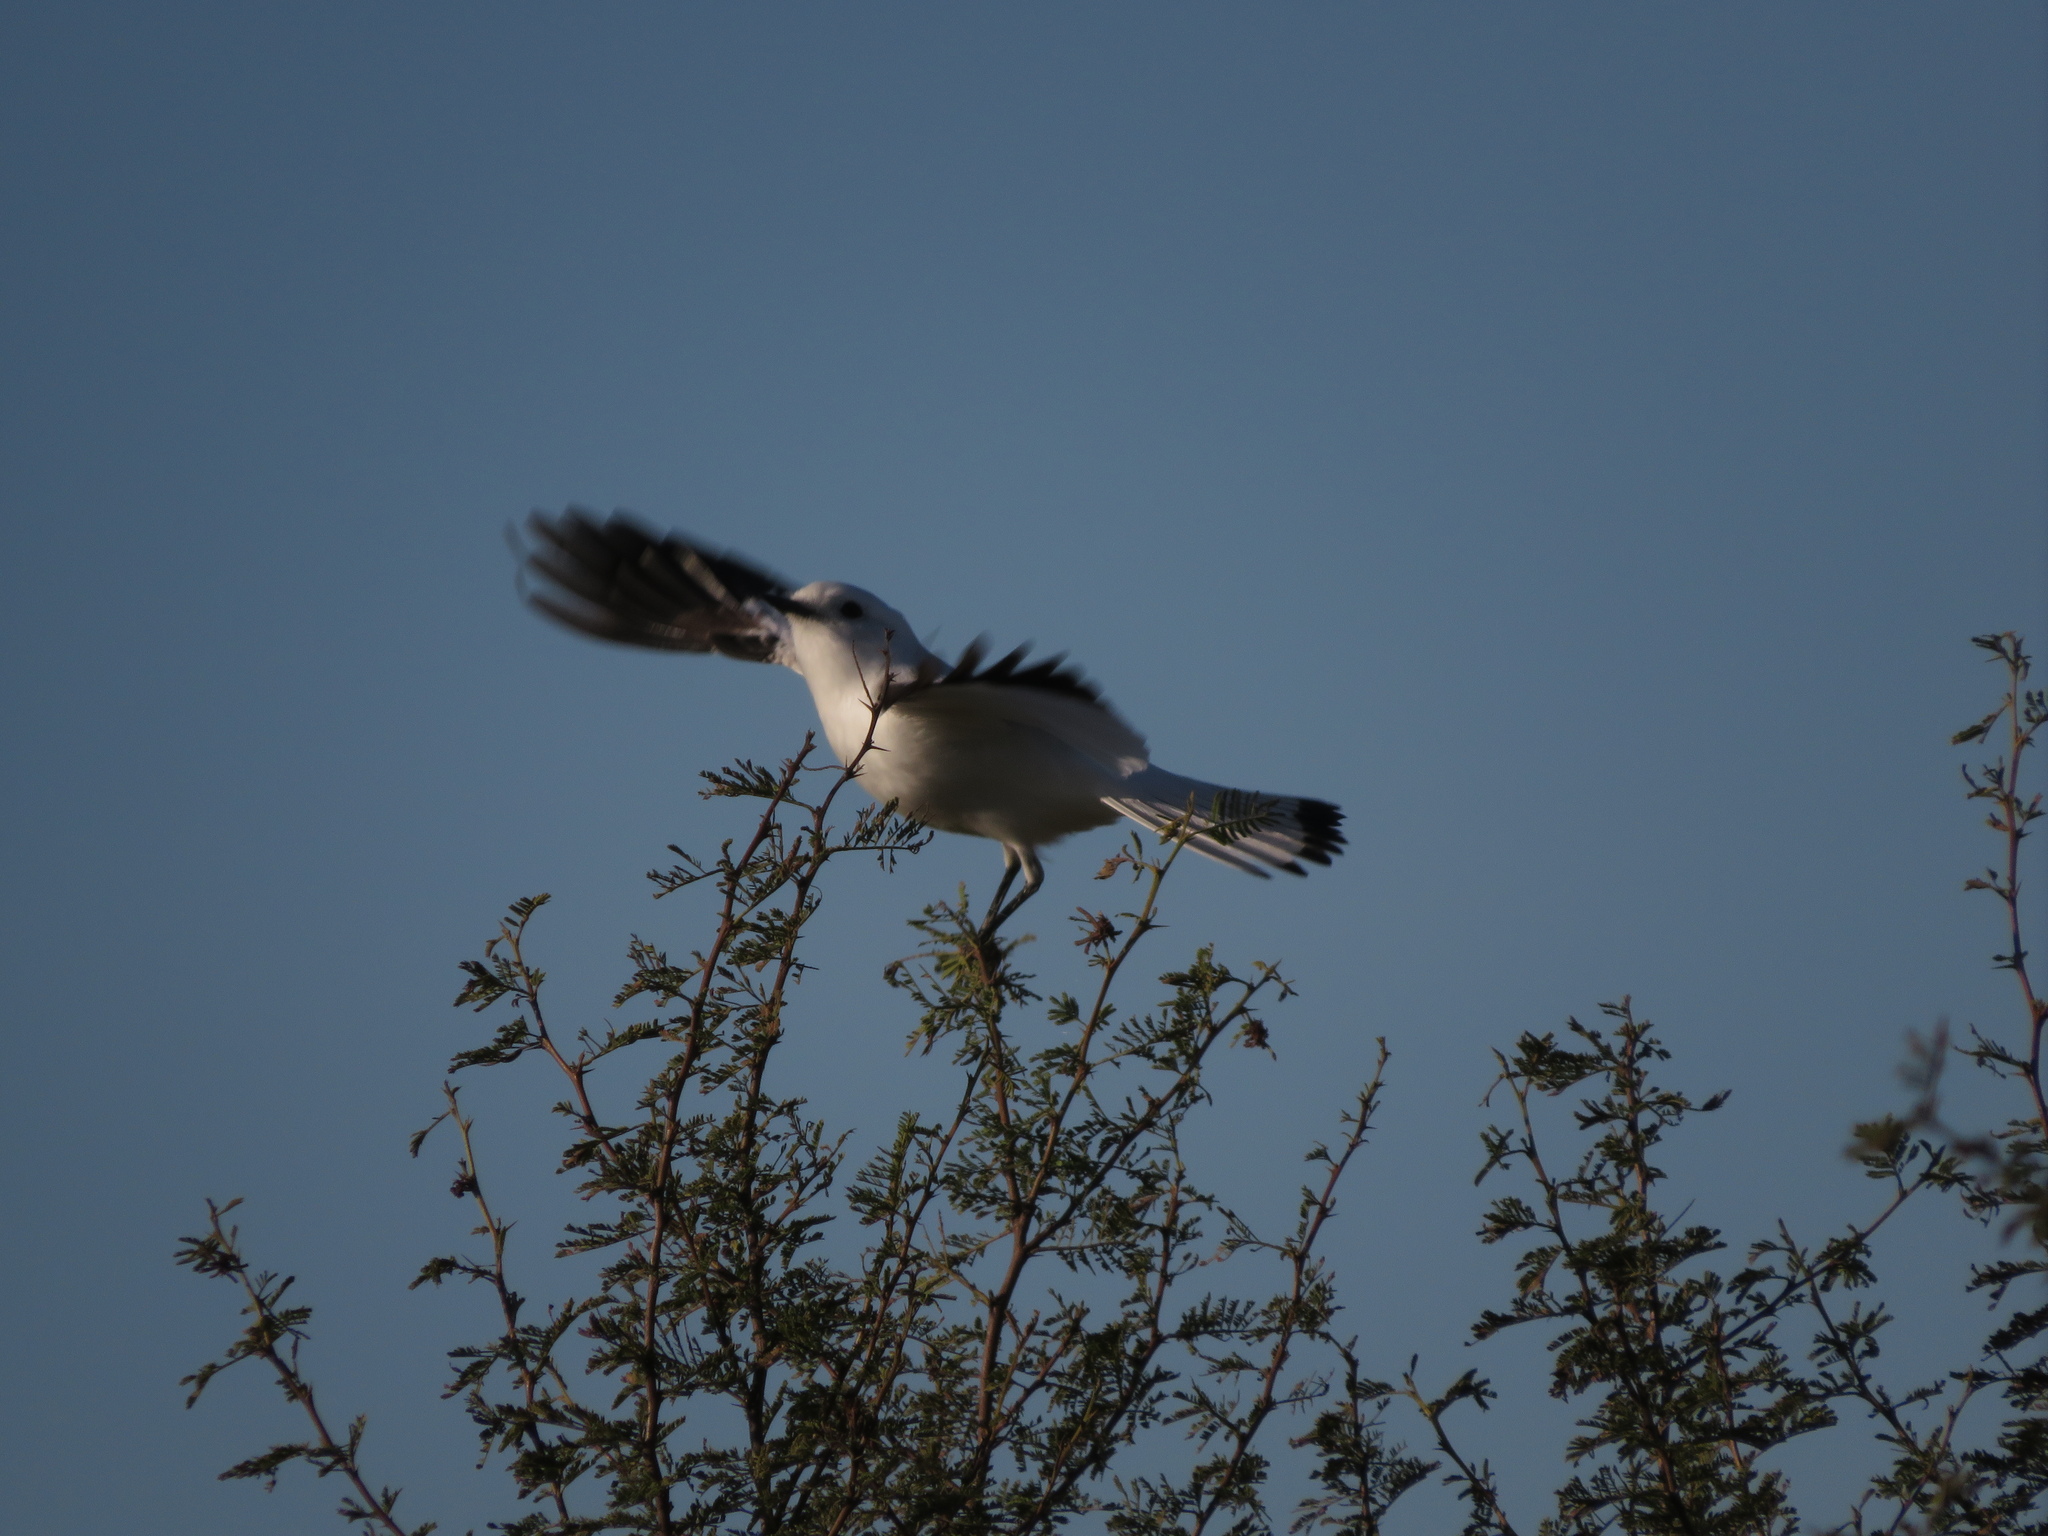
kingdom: Animalia
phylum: Chordata
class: Aves
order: Passeriformes
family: Tyrannidae
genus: Xolmis
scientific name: Xolmis irupero
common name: White monjita
